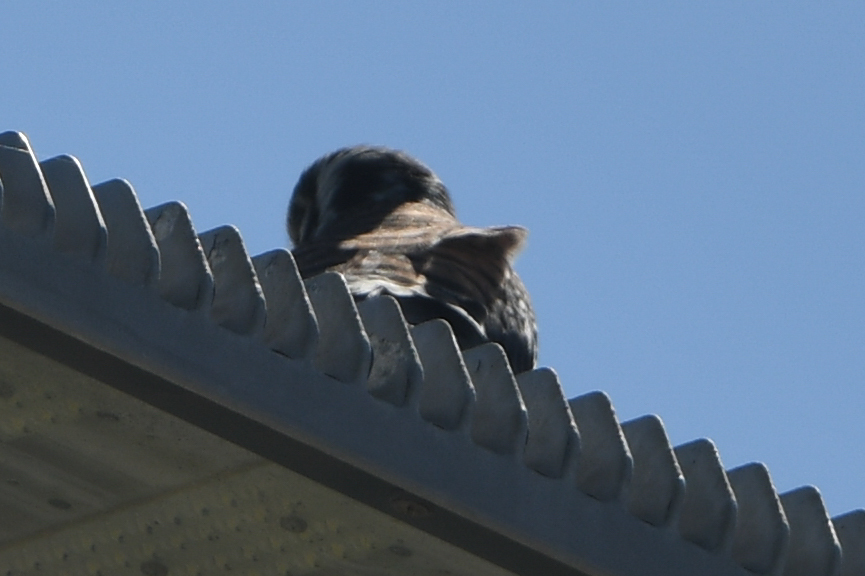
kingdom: Animalia
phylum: Chordata
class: Aves
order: Falconiformes
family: Falconidae
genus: Falco
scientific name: Falco sparverius
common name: American kestrel
